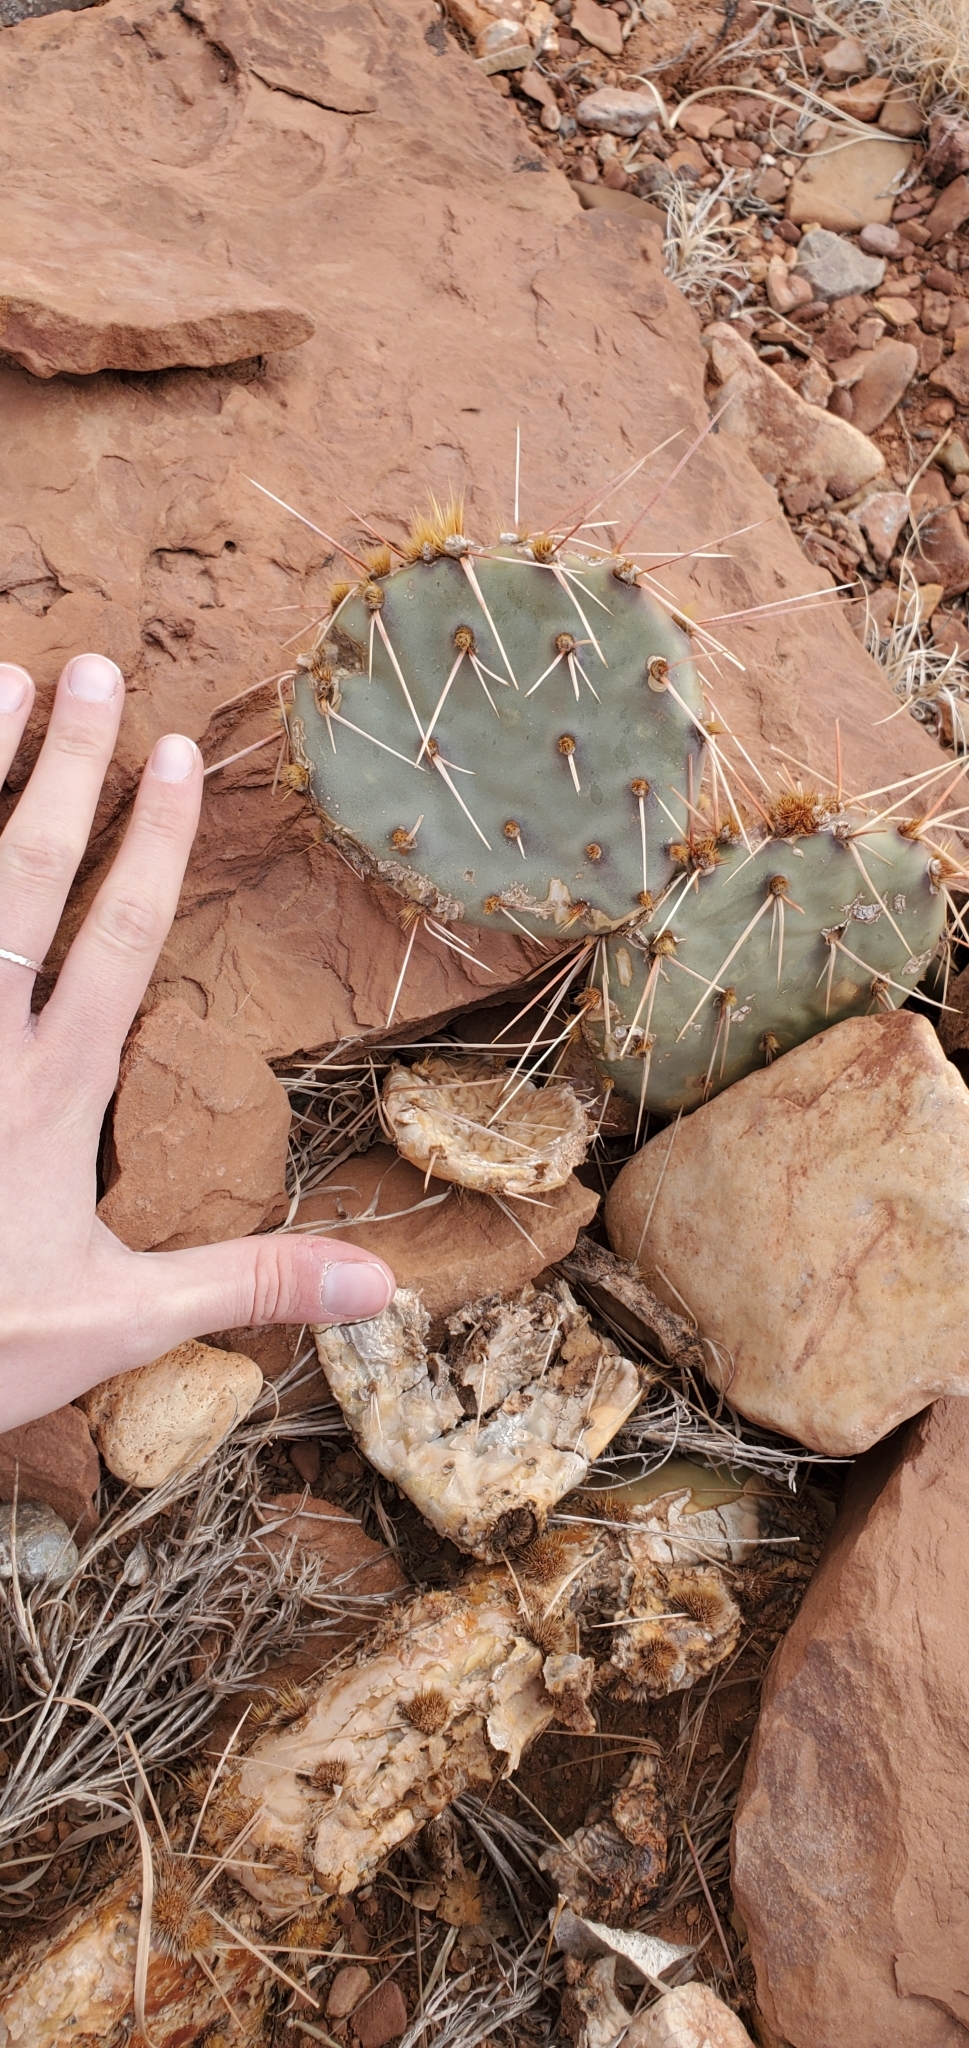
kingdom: Plantae
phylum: Tracheophyta
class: Magnoliopsida
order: Caryophyllales
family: Cactaceae
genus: Opuntia
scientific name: Opuntia phaeacantha
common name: New mexico prickly-pear
